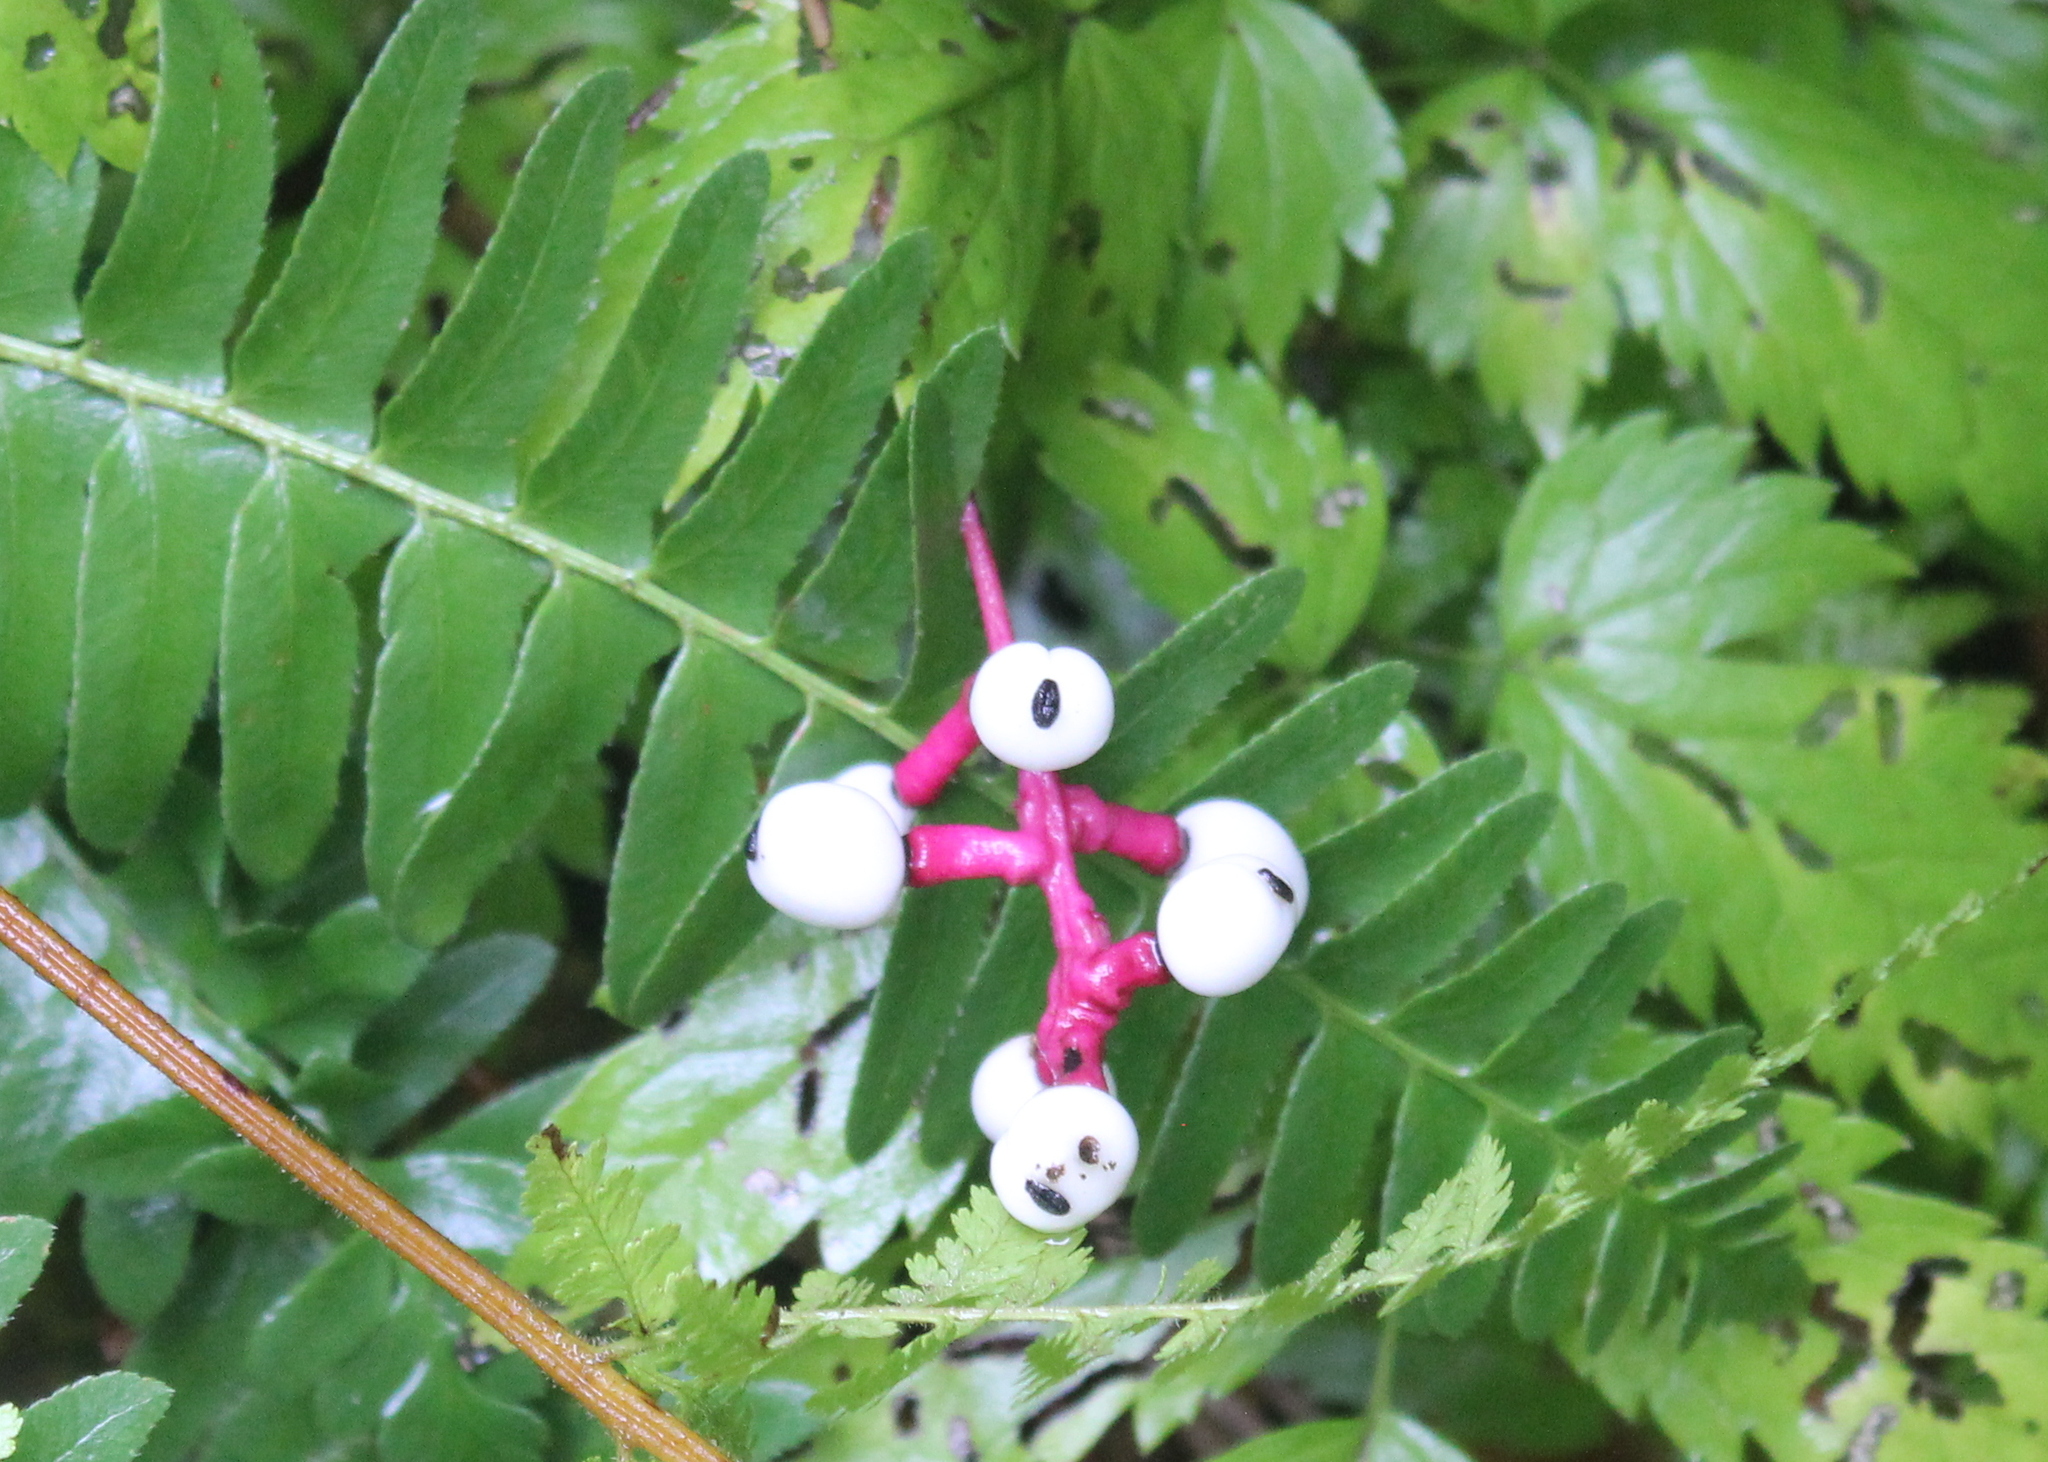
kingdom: Plantae
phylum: Tracheophyta
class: Magnoliopsida
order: Ranunculales
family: Ranunculaceae
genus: Actaea
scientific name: Actaea pachypoda
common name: Doll's-eyes
